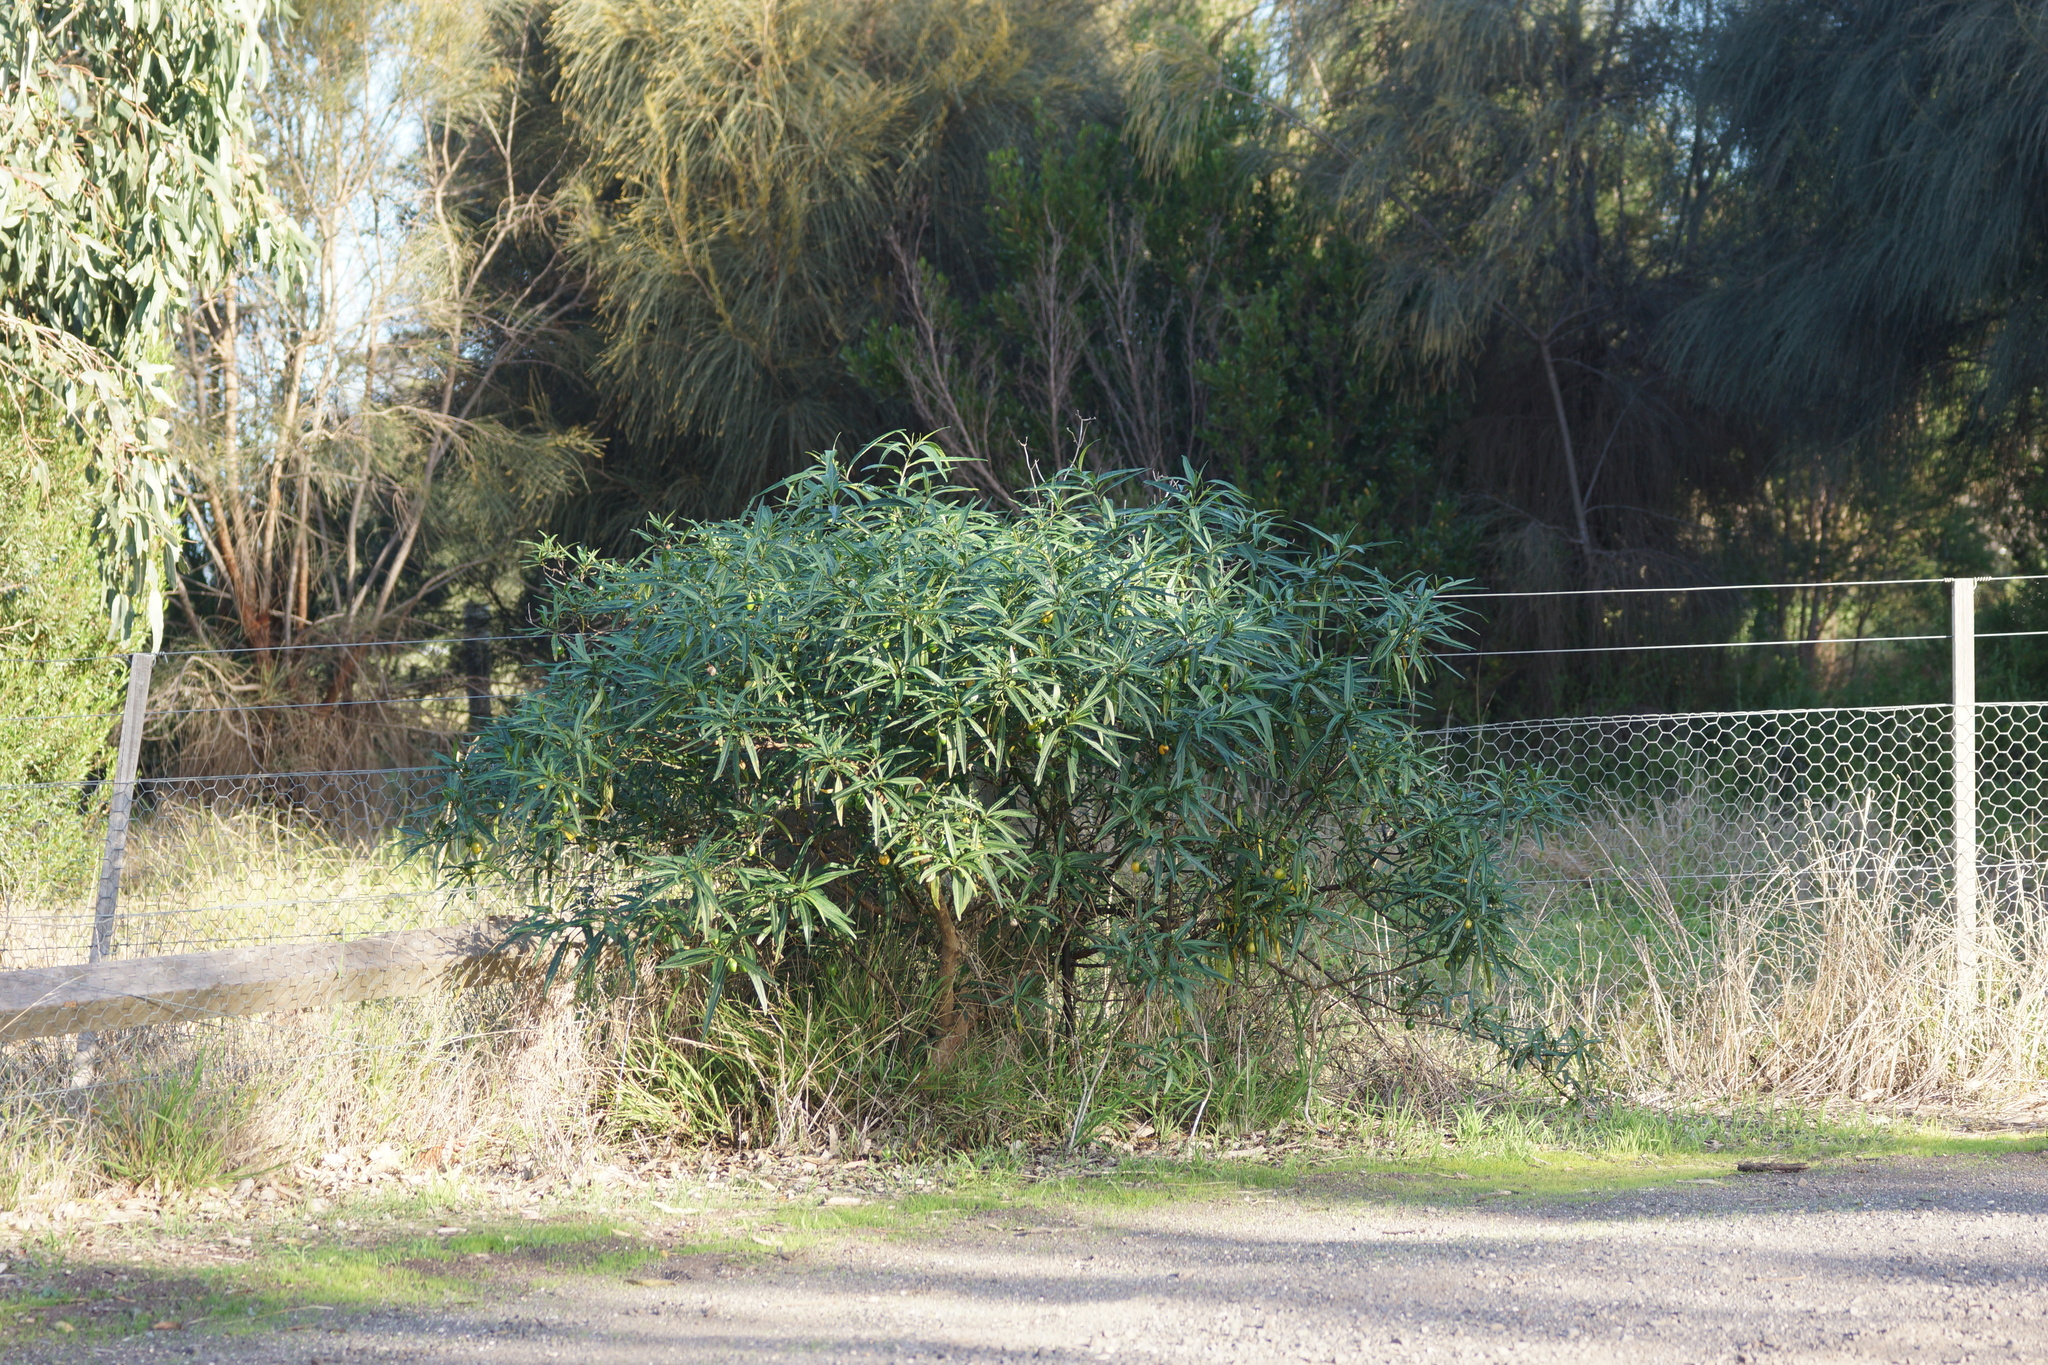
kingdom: Plantae
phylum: Tracheophyta
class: Magnoliopsida
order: Solanales
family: Solanaceae
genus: Solanum
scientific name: Solanum laciniatum
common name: Kangaroo-apple
